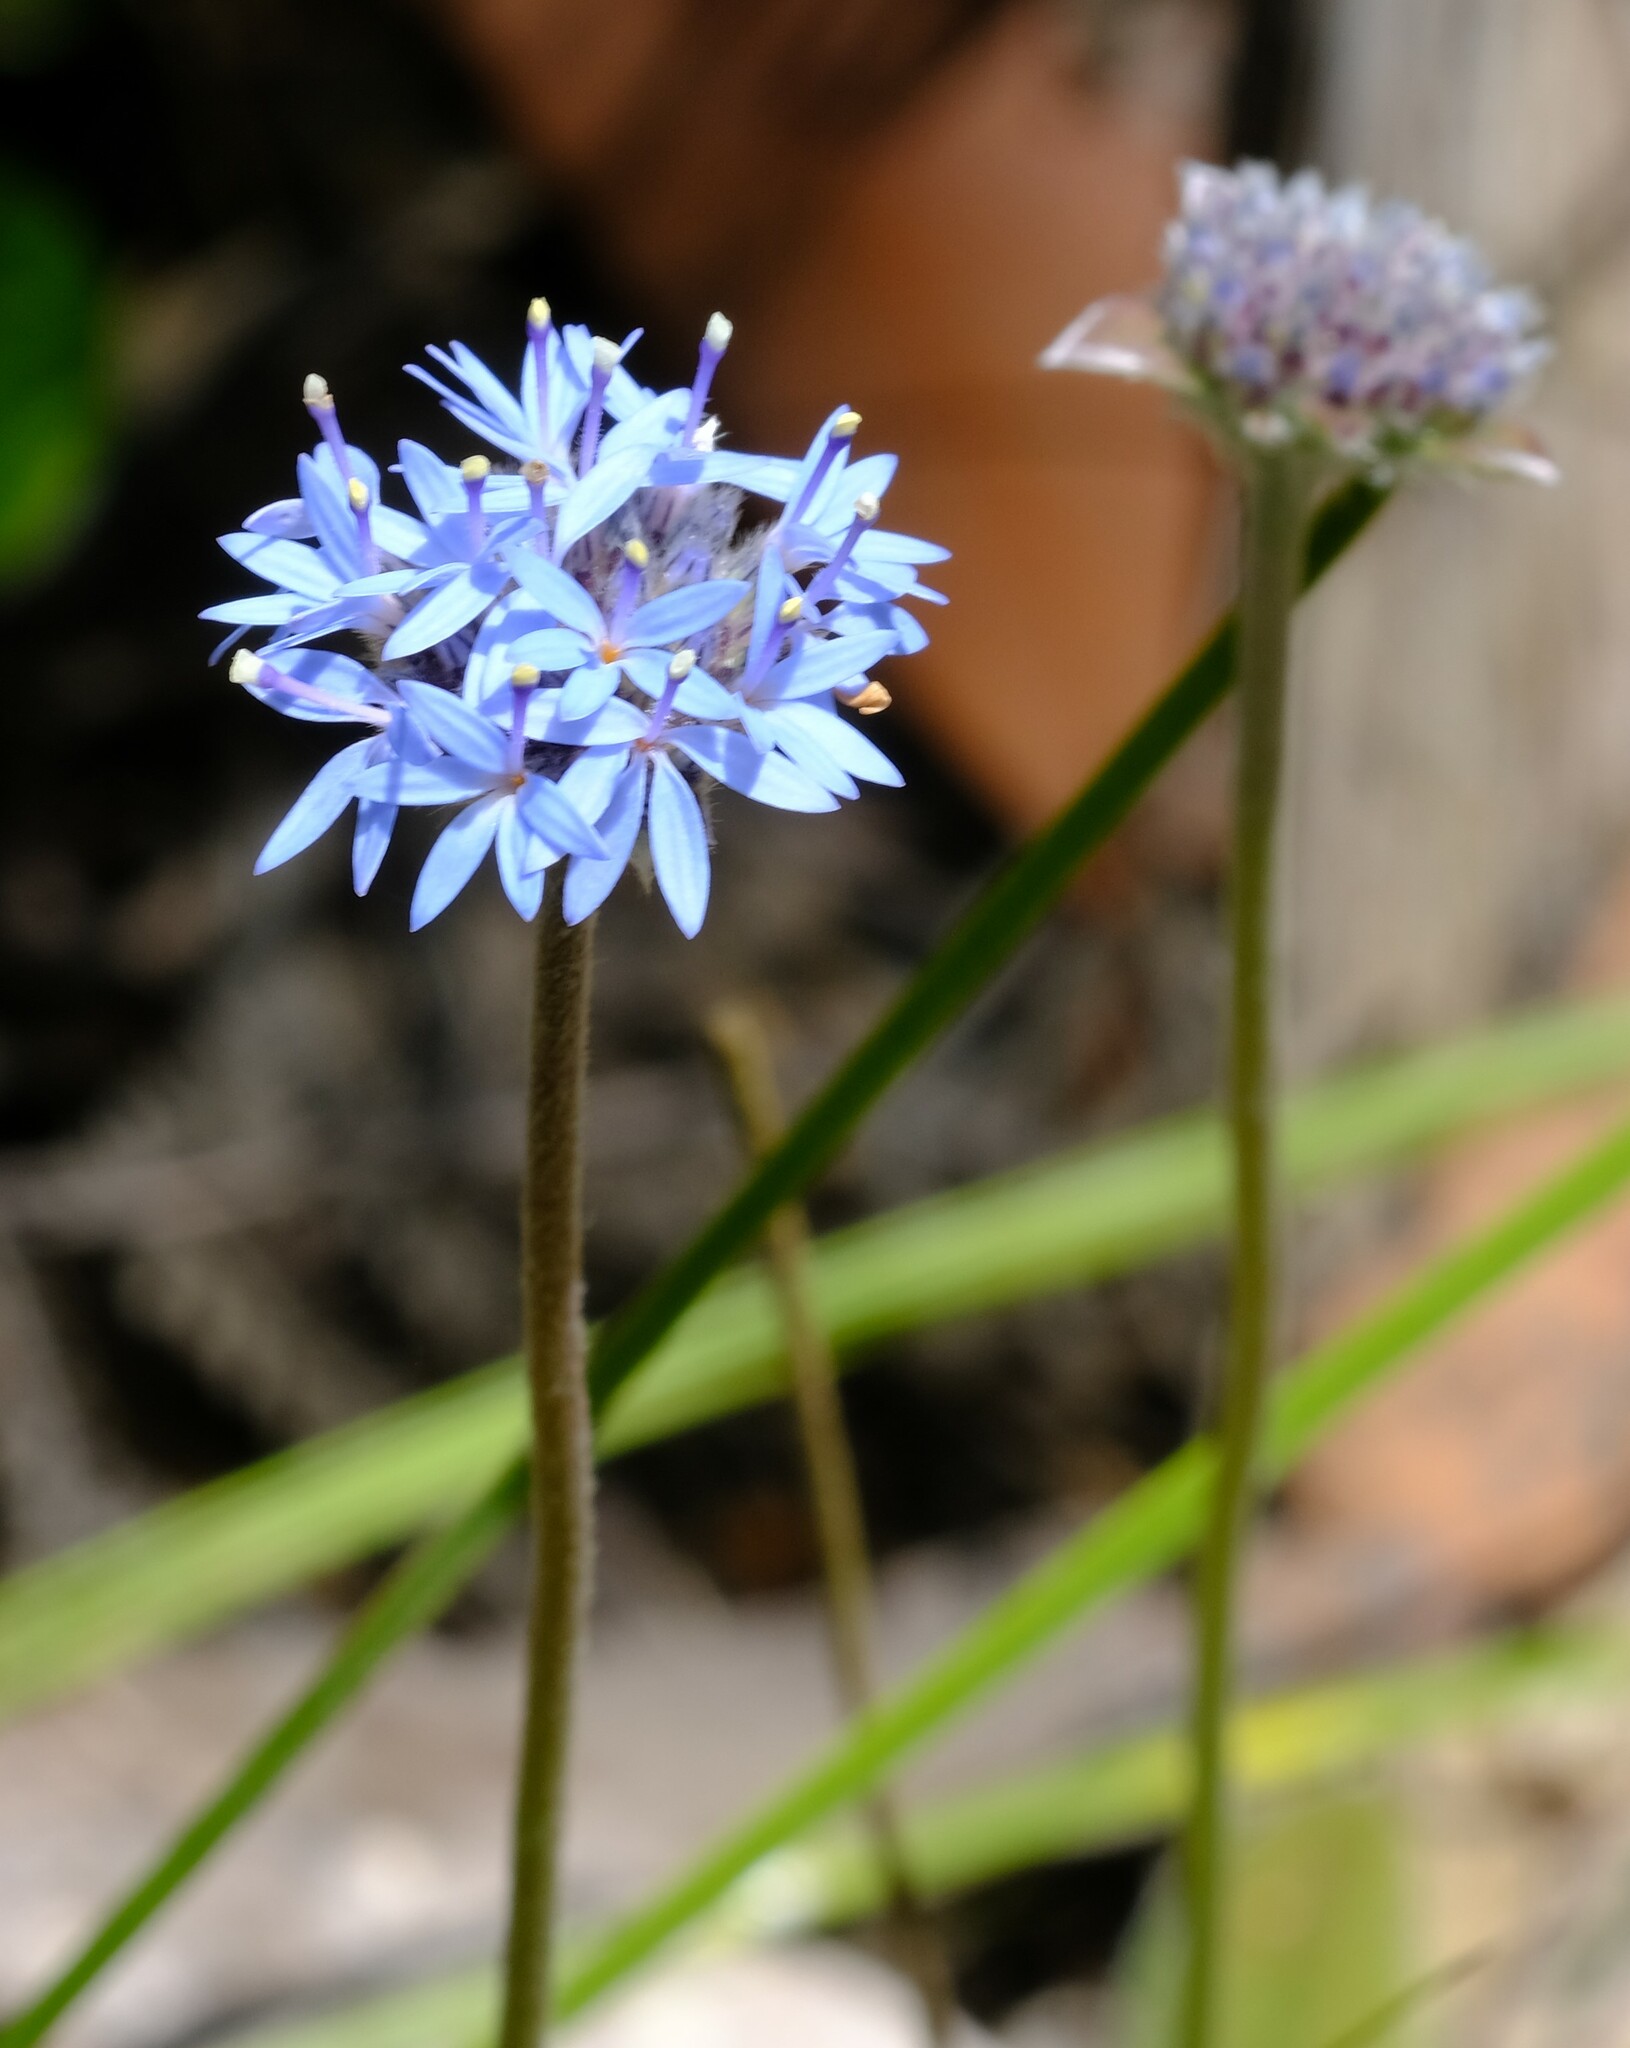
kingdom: Plantae
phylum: Tracheophyta
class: Magnoliopsida
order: Asterales
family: Goodeniaceae
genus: Brunonia
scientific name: Brunonia australis
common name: Blue pincushion
